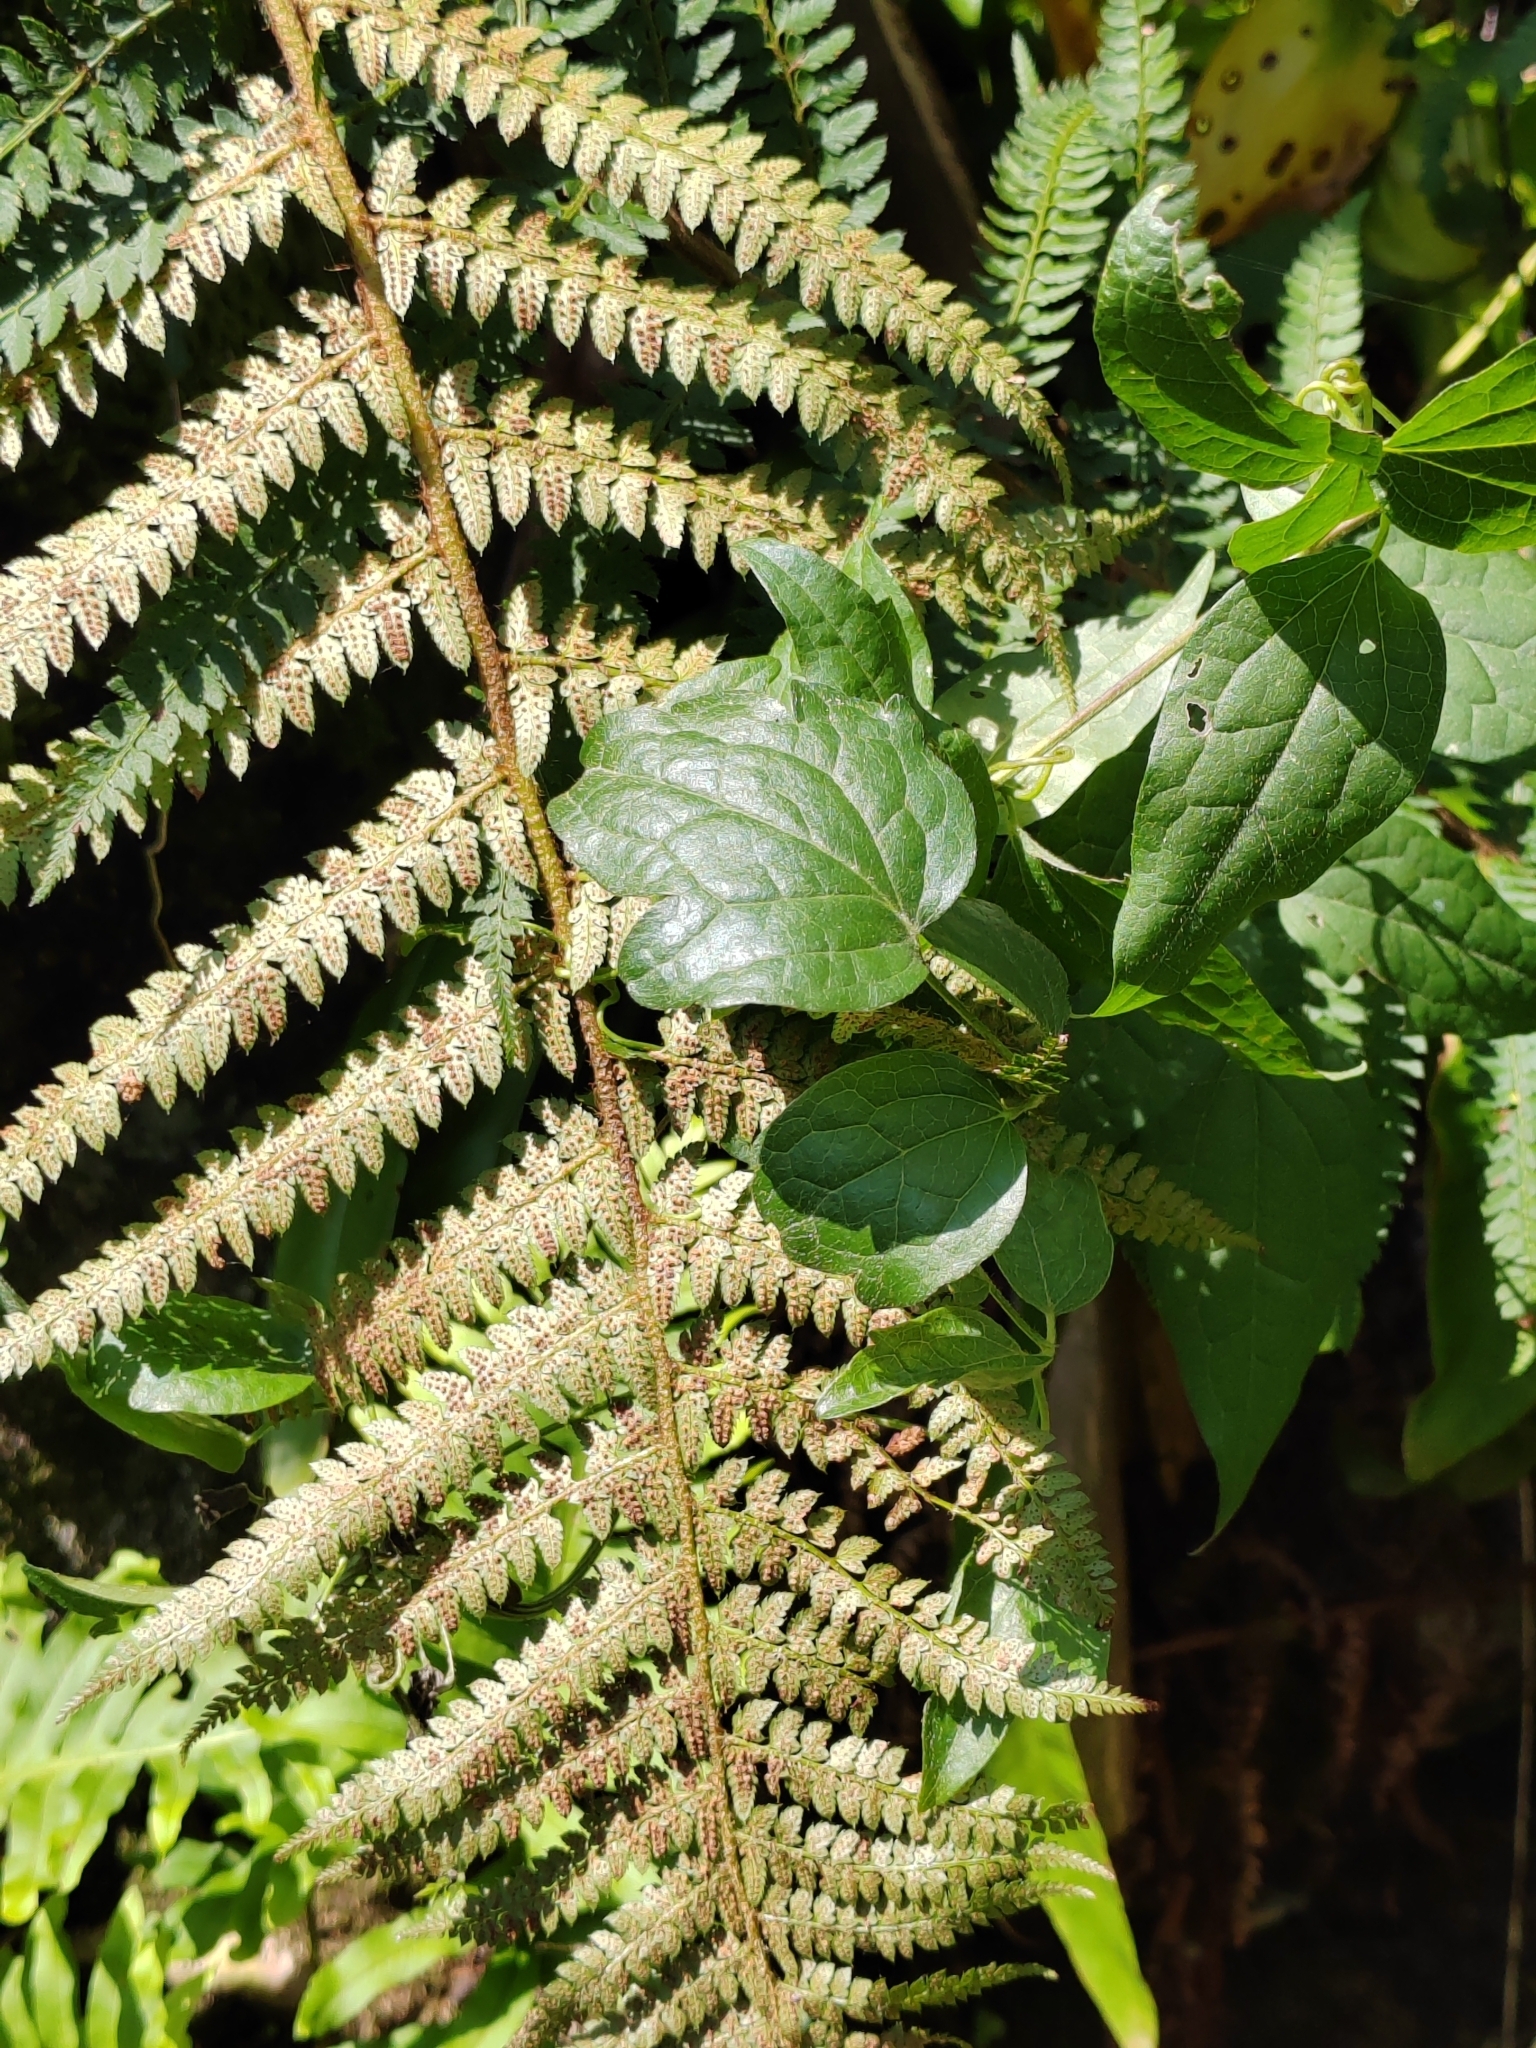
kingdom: Plantae
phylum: Tracheophyta
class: Polypodiopsida
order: Polypodiales
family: Dryopteridaceae
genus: Polystichum
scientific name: Polystichum setiferum
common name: Soft shield-fern
